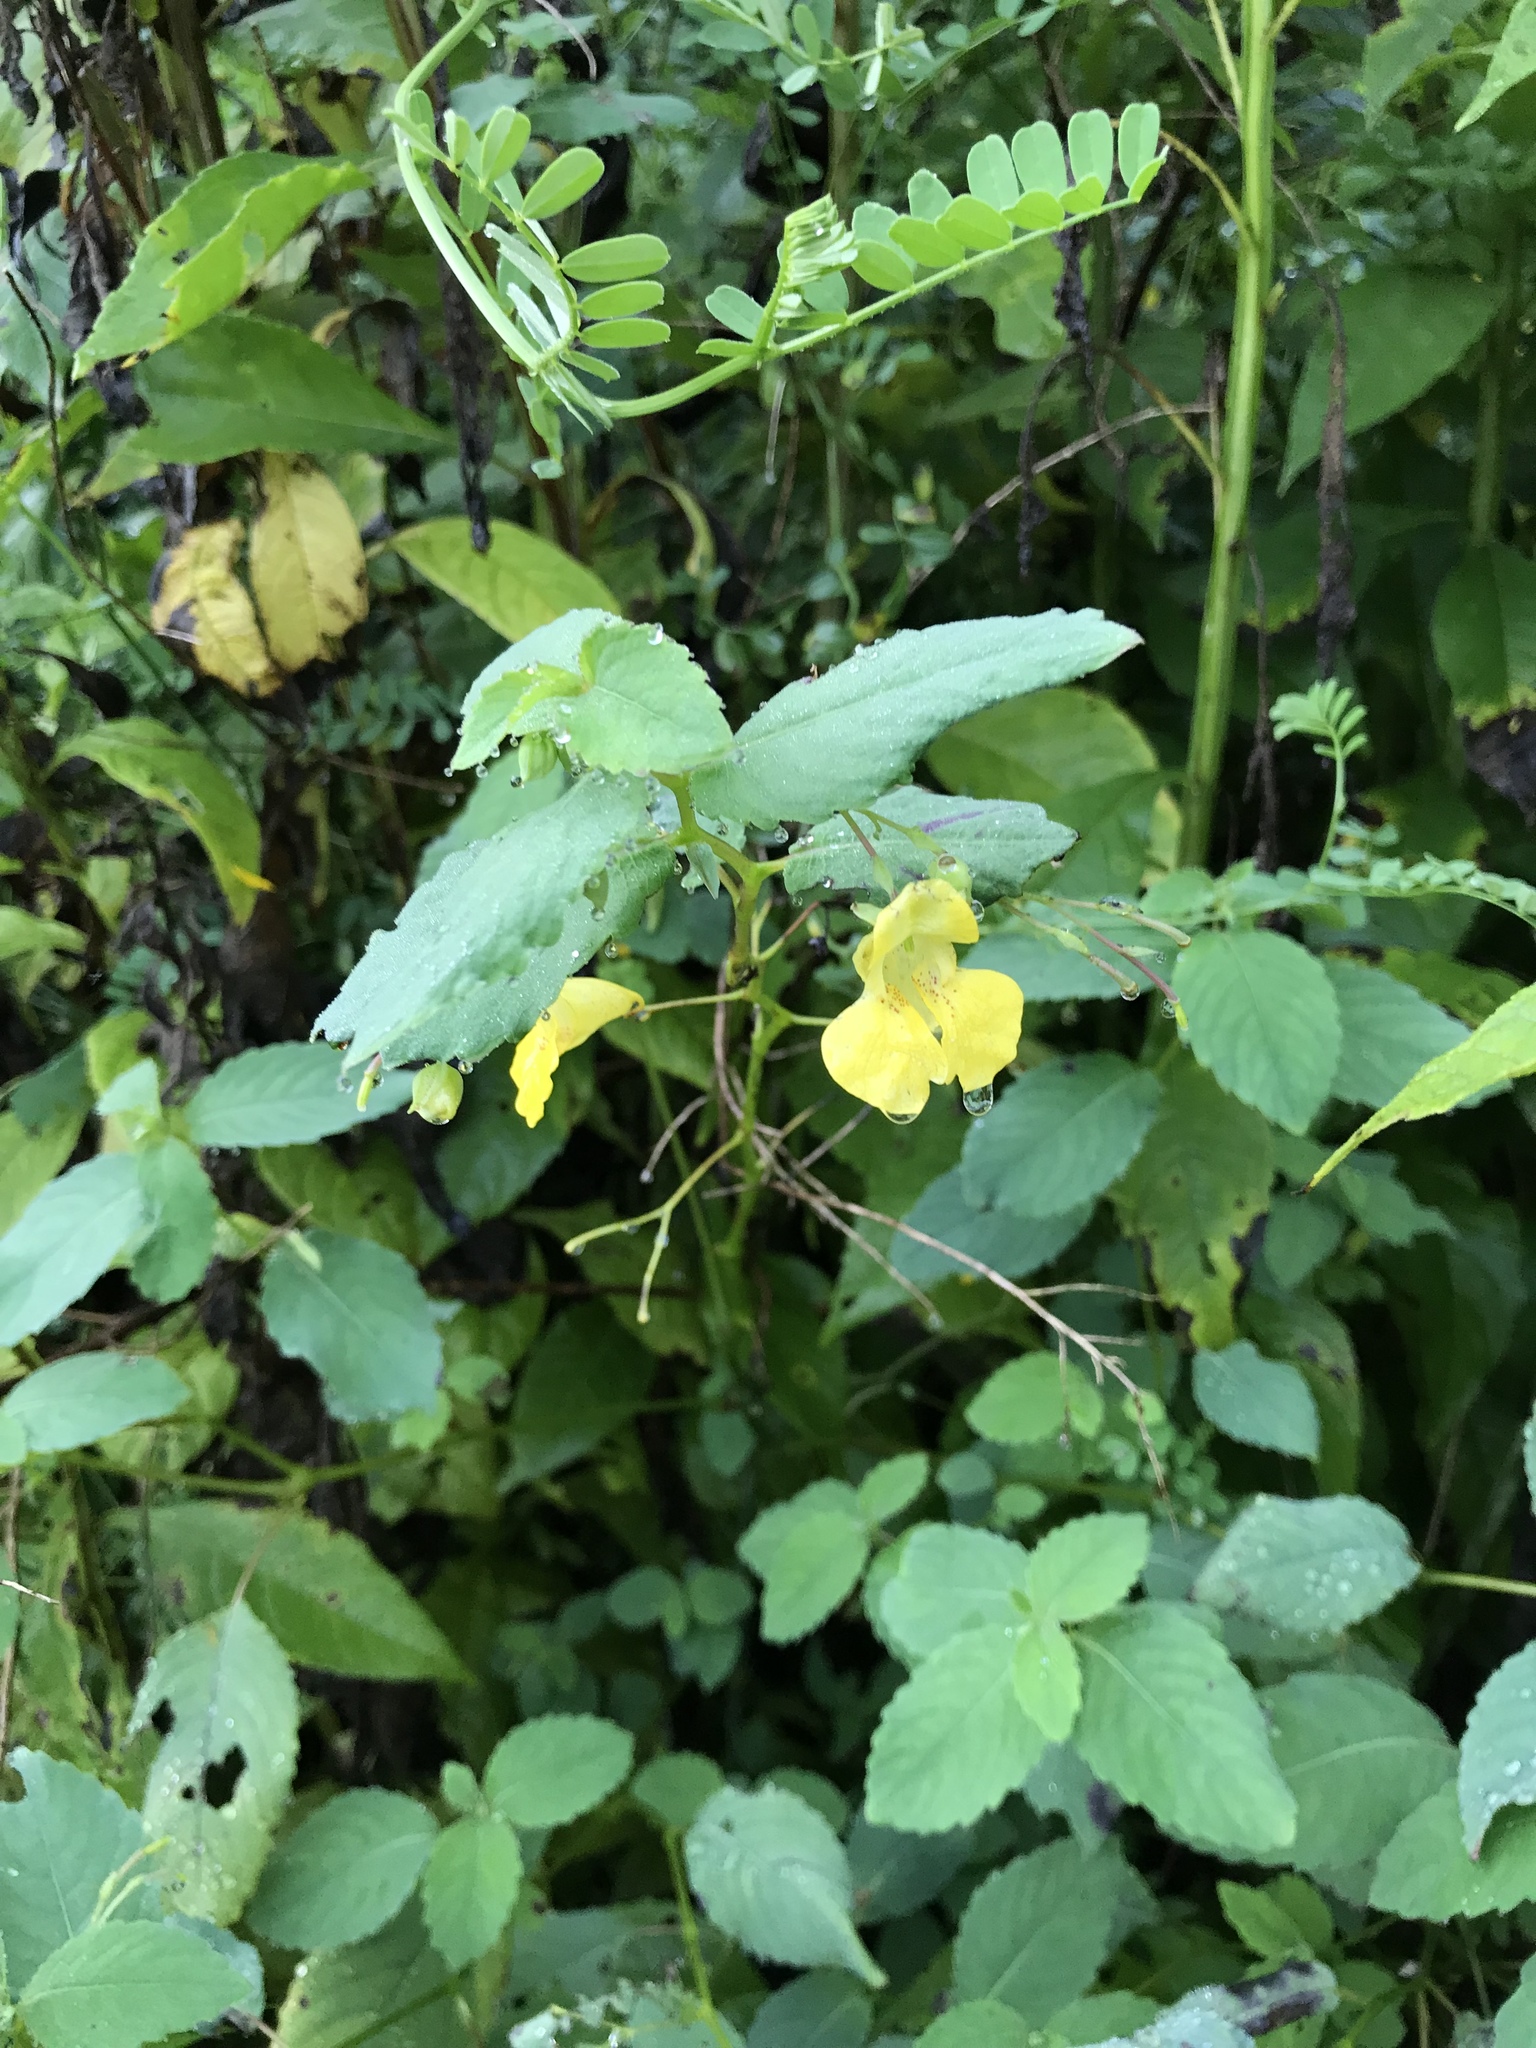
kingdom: Plantae
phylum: Tracheophyta
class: Magnoliopsida
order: Ericales
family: Balsaminaceae
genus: Impatiens
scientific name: Impatiens pallida
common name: Pale snapweed
